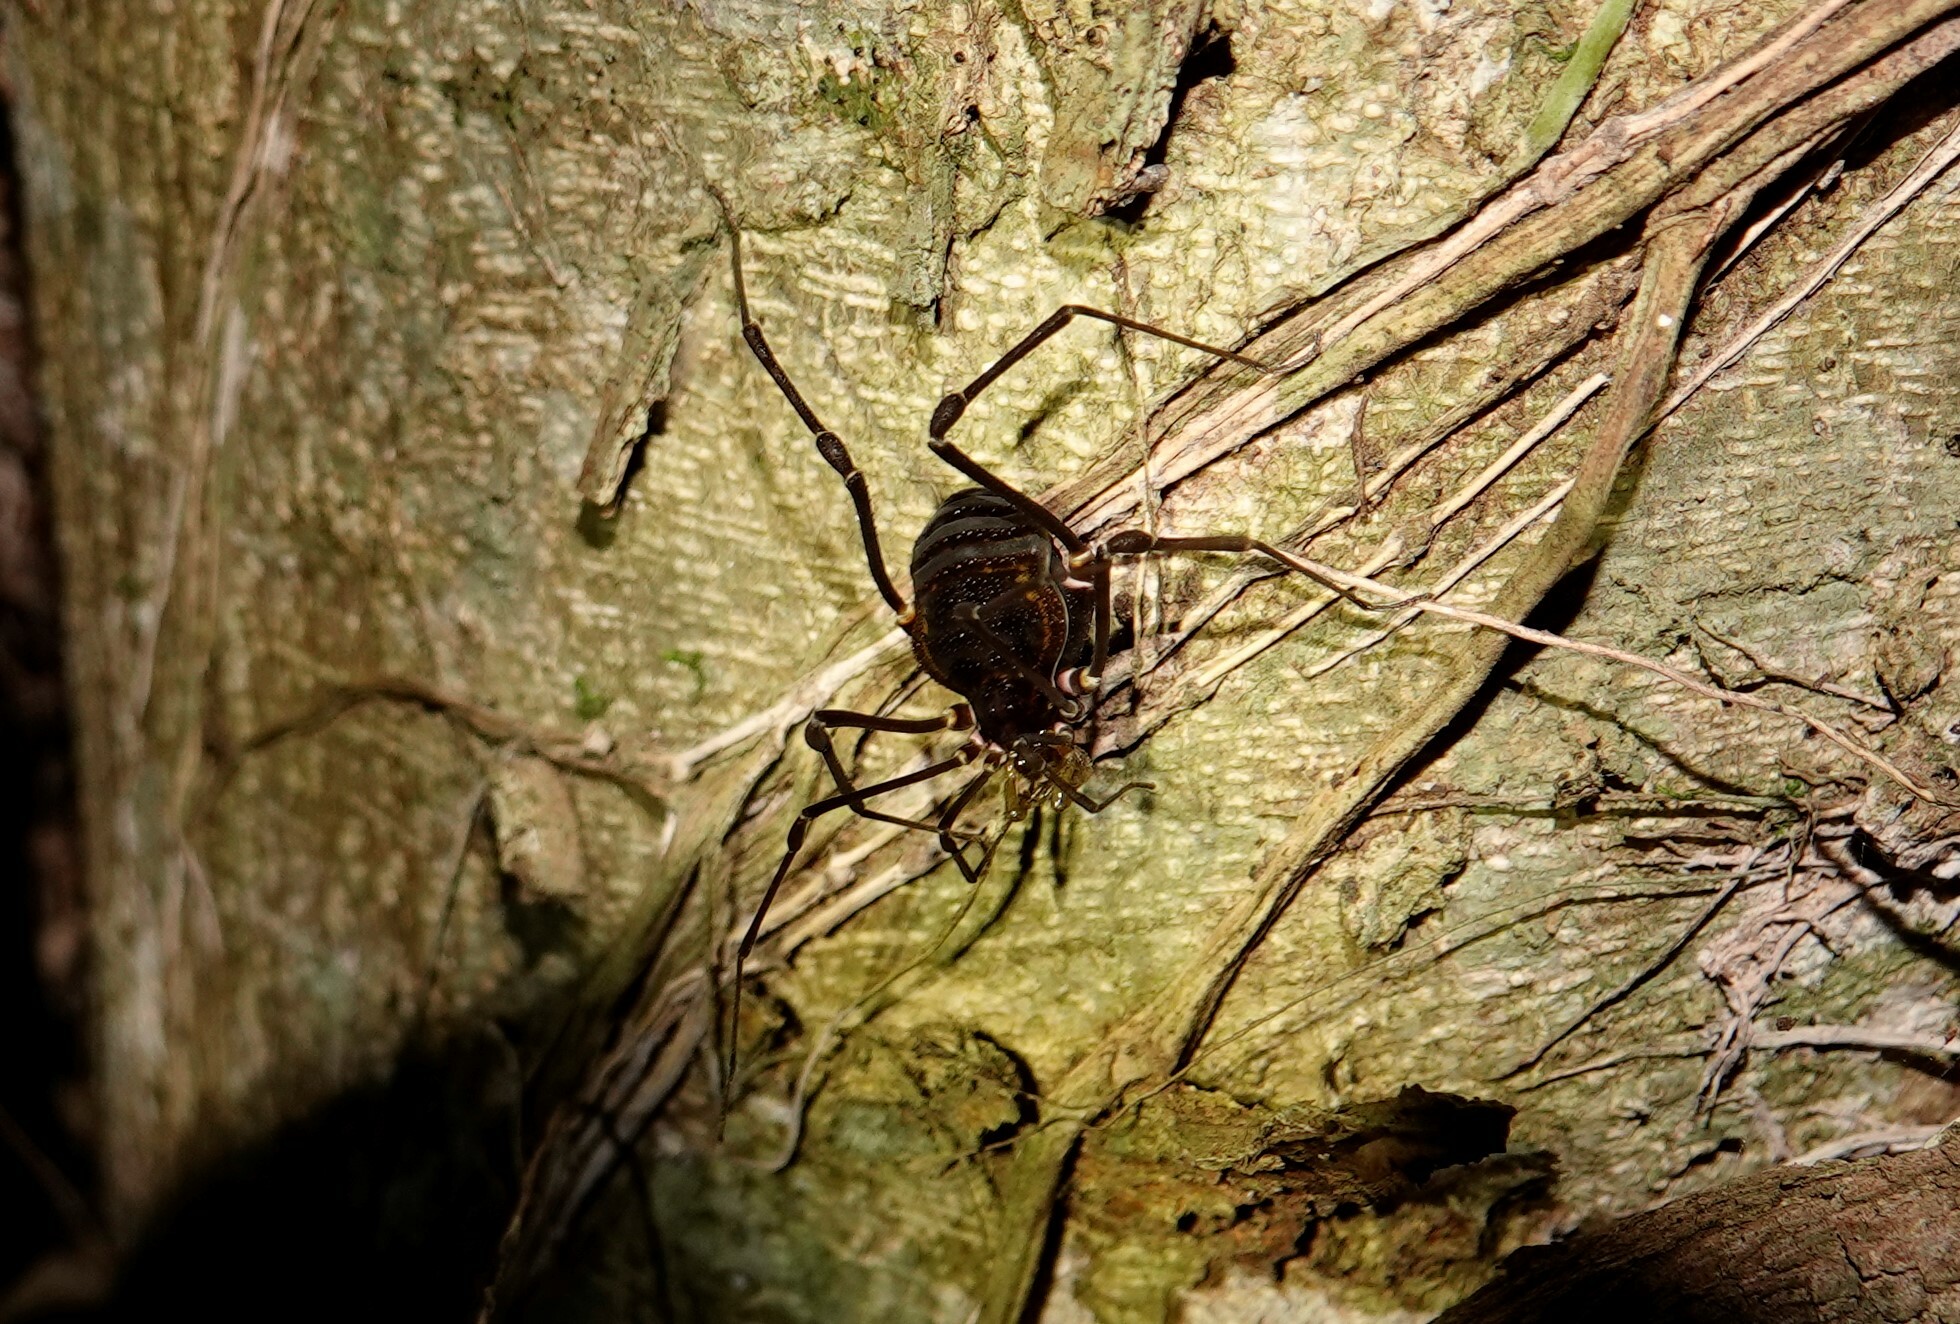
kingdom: Animalia
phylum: Arthropoda
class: Arachnida
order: Opiliones
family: Gonyleptidae
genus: Geraeocormobius
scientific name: Geraeocormobius sylvarum
